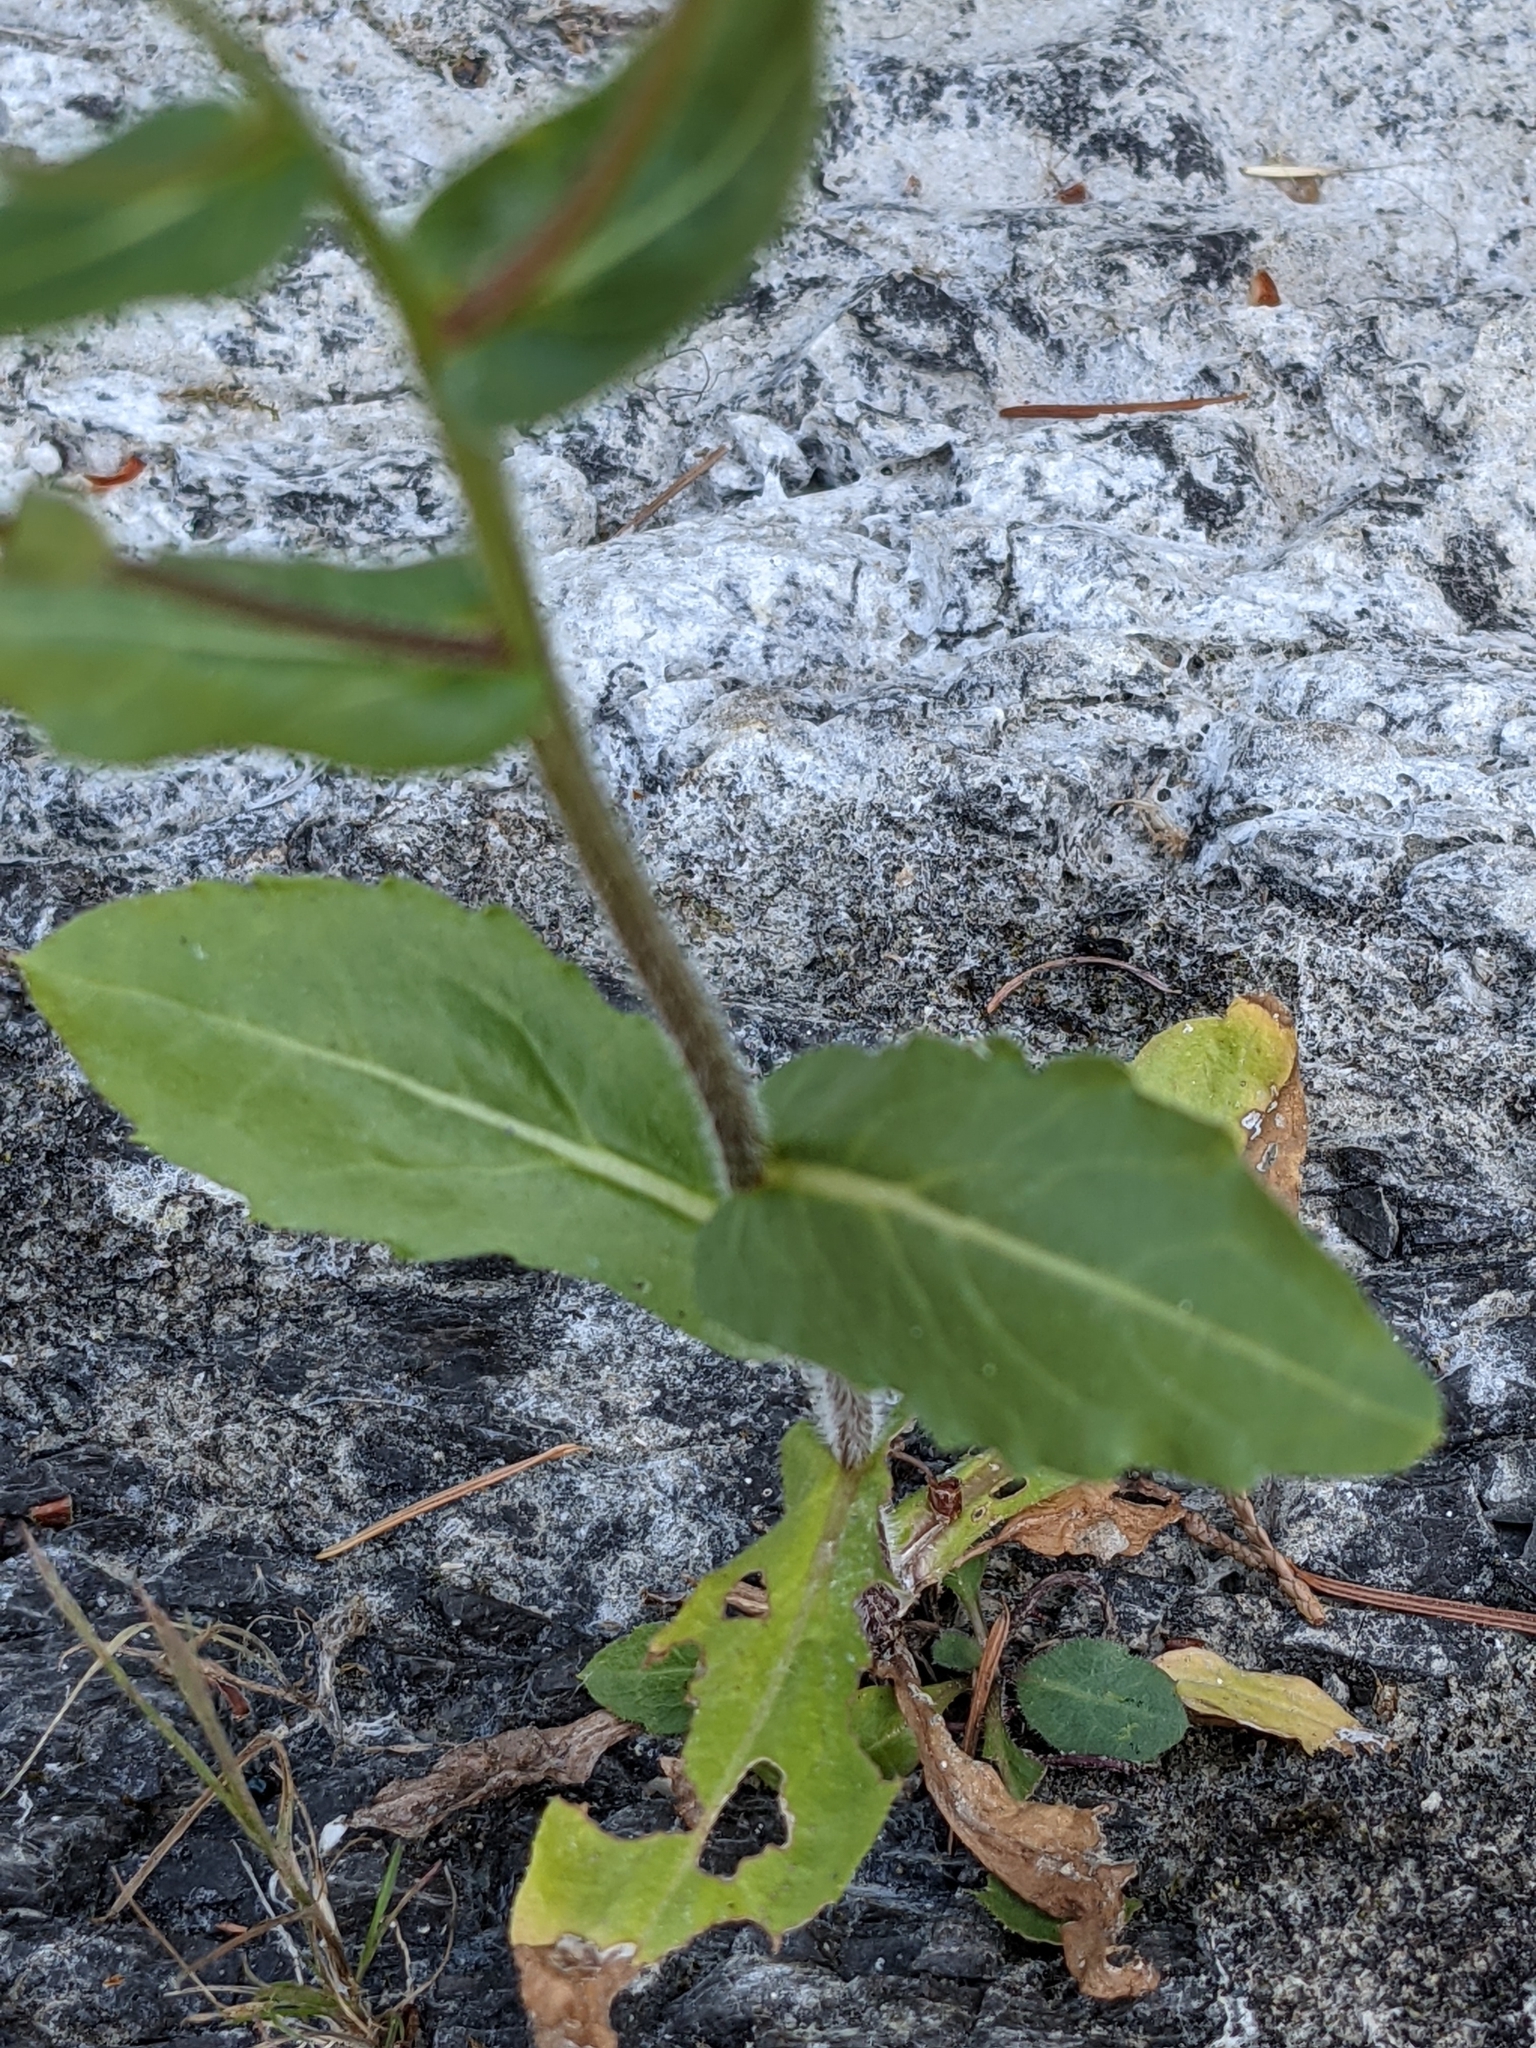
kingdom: Plantae
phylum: Tracheophyta
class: Magnoliopsida
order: Asterales
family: Asteraceae
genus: Erigeron
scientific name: Erigeron philadelphicus
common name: Robin's-plantain
